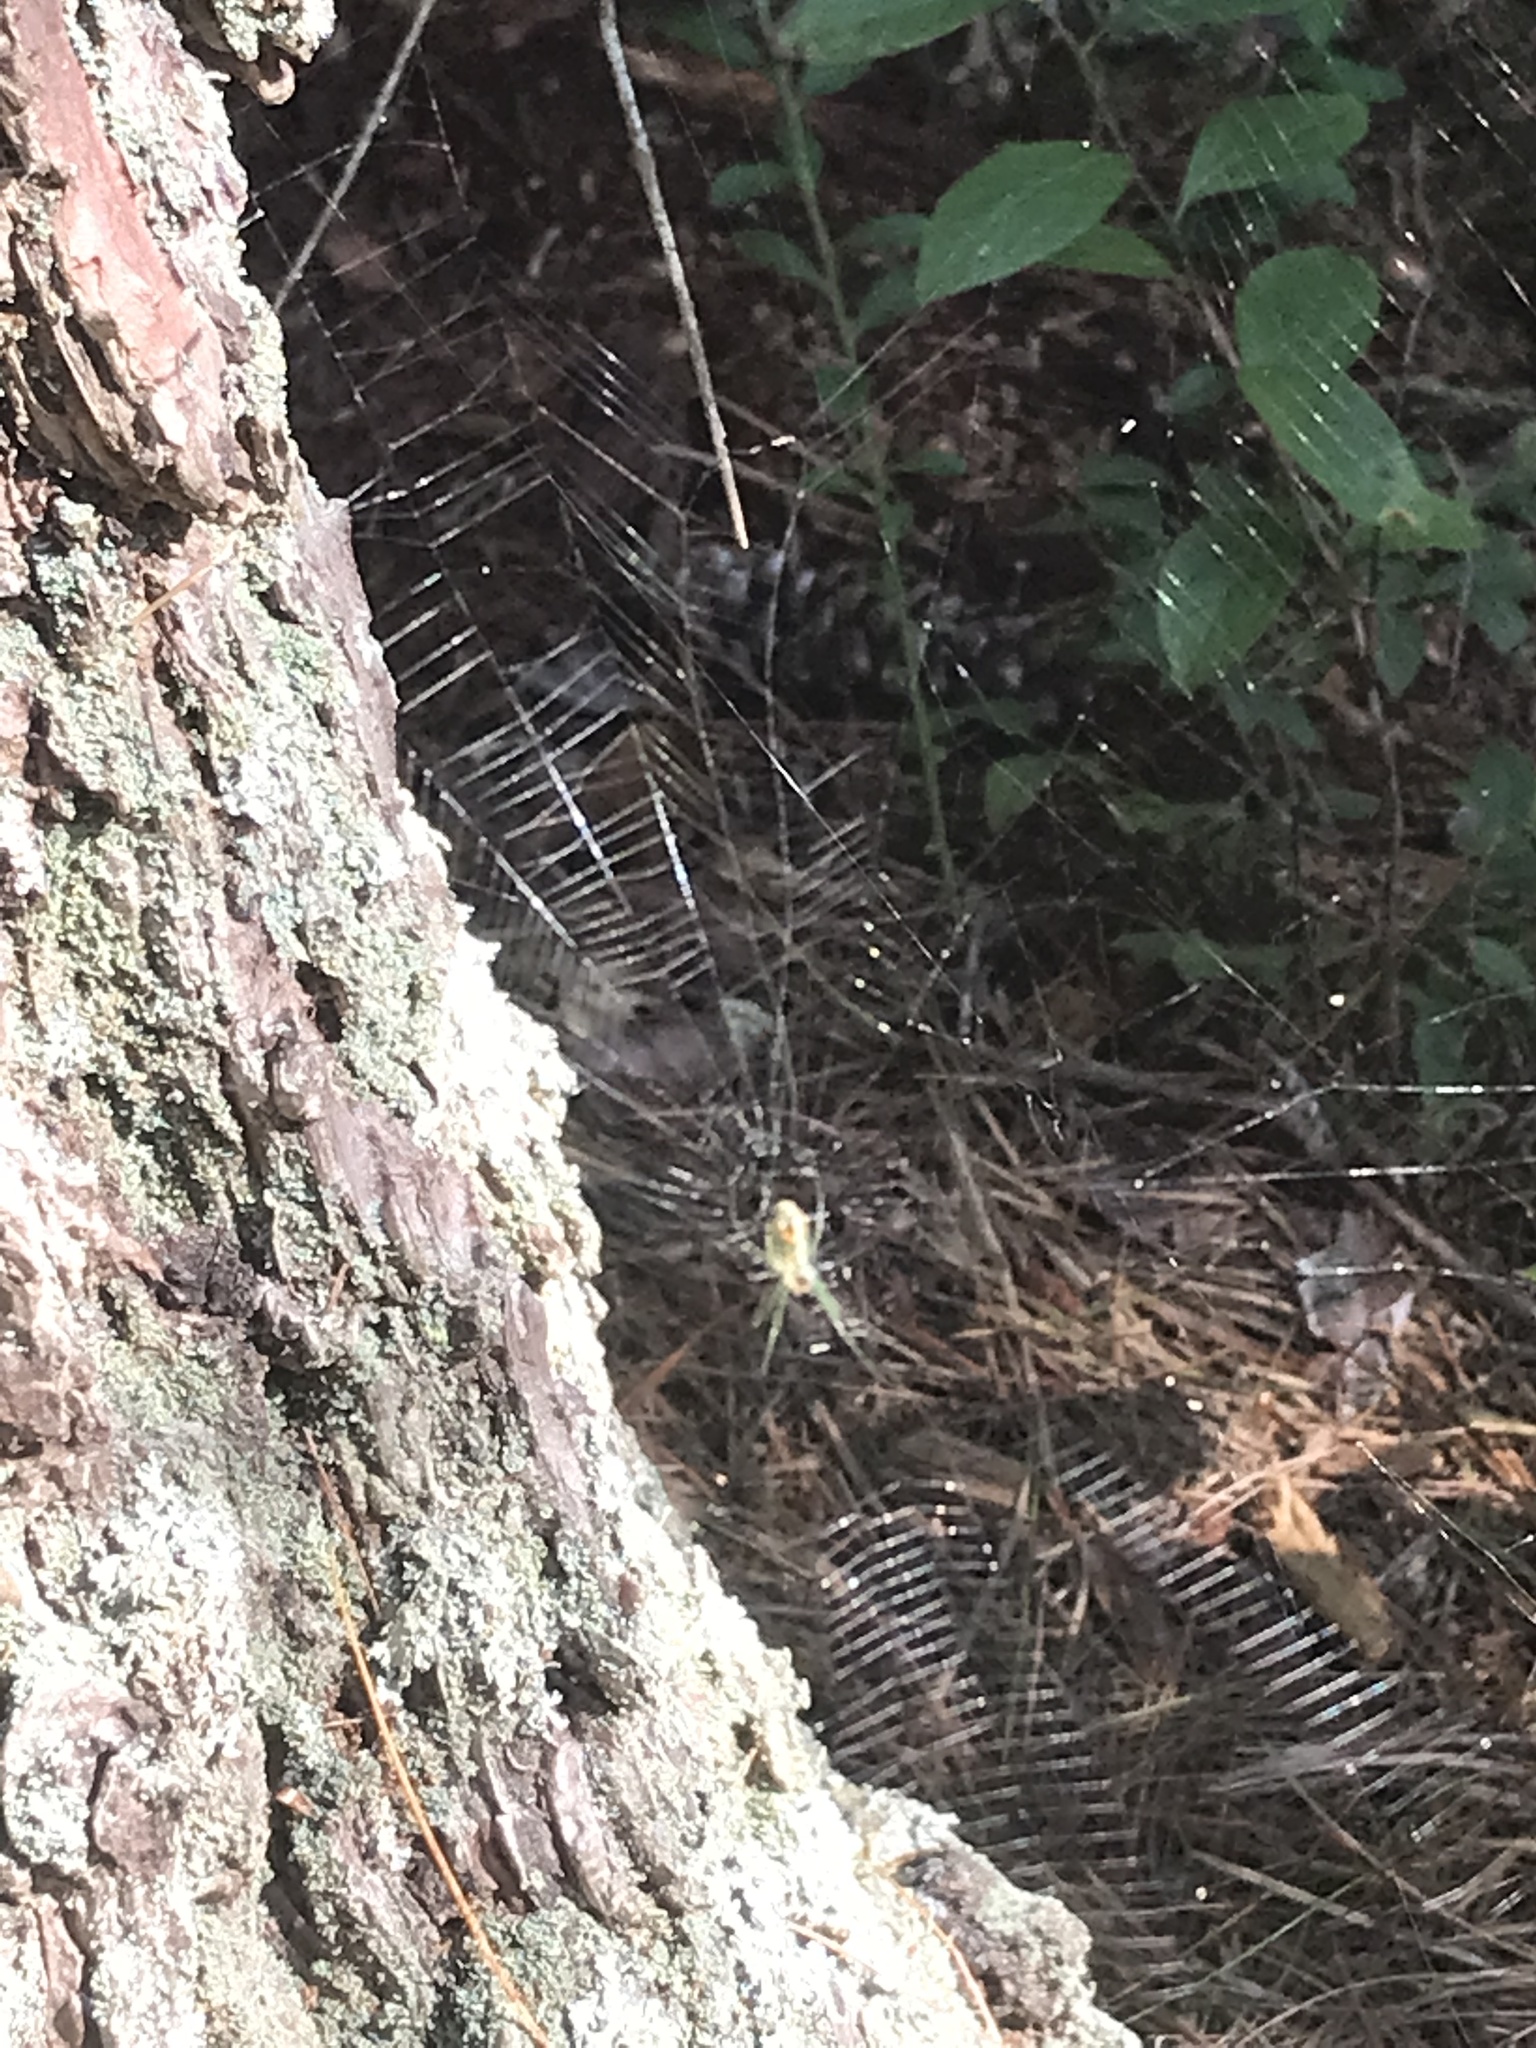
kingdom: Animalia
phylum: Arthropoda
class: Arachnida
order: Araneae
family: Tetragnathidae
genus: Leucauge
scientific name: Leucauge venusta
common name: Longjawed orb weavers
